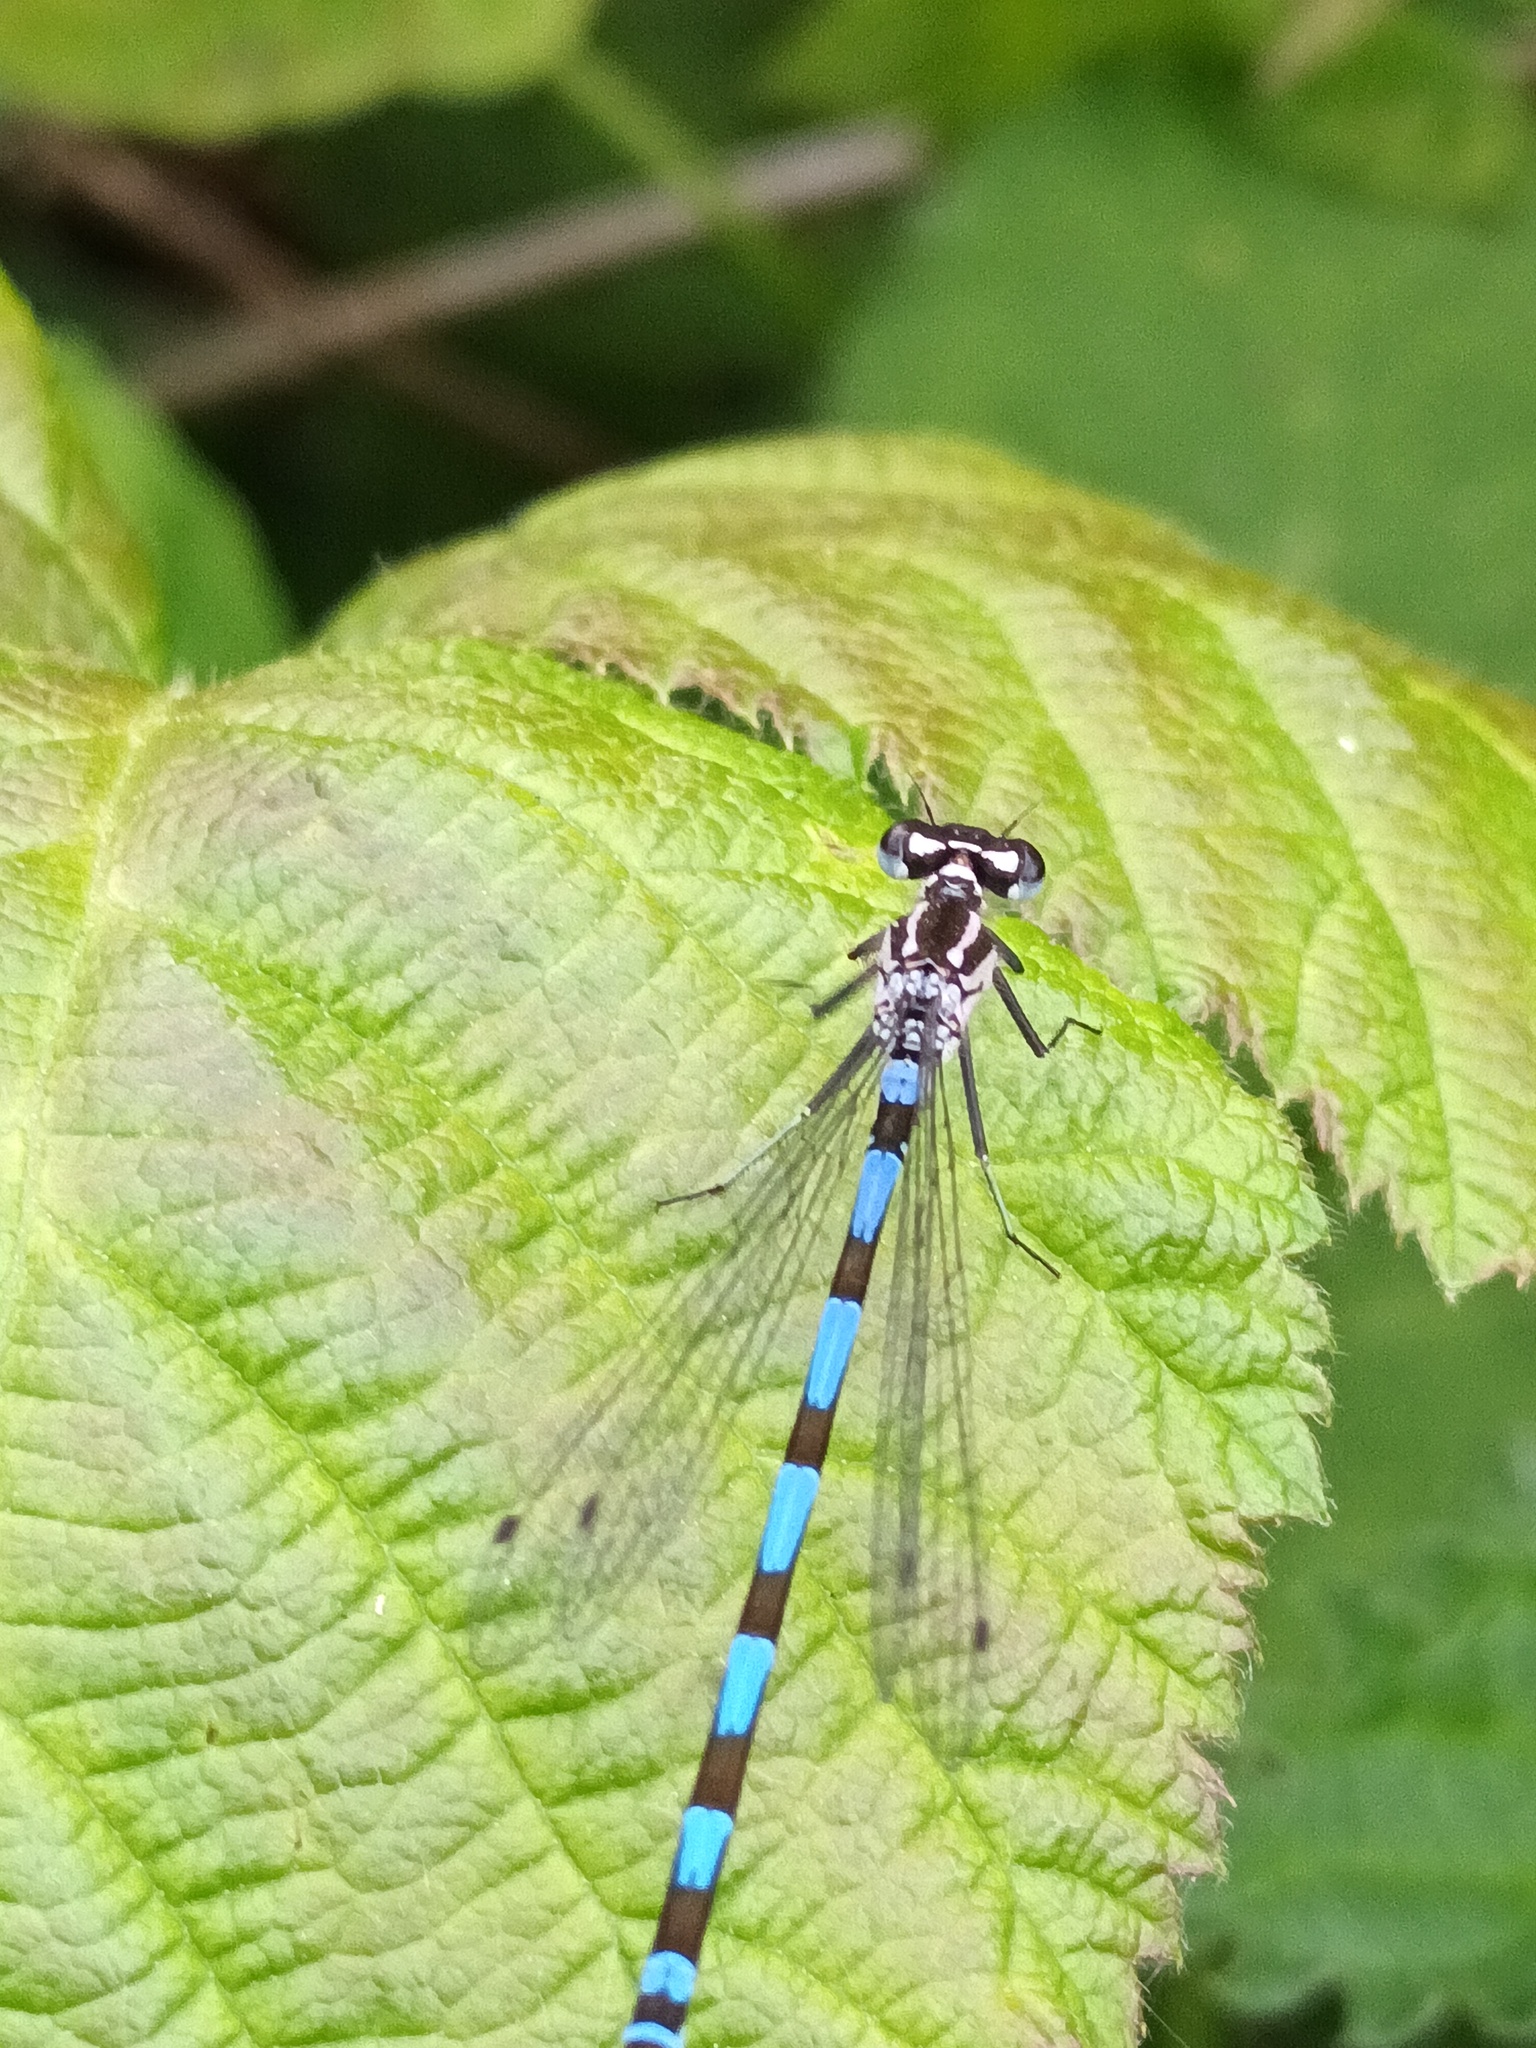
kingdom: Animalia
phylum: Arthropoda
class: Insecta
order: Odonata
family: Coenagrionidae
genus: Coenagrion
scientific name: Coenagrion pulchellum
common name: Variable bluet
